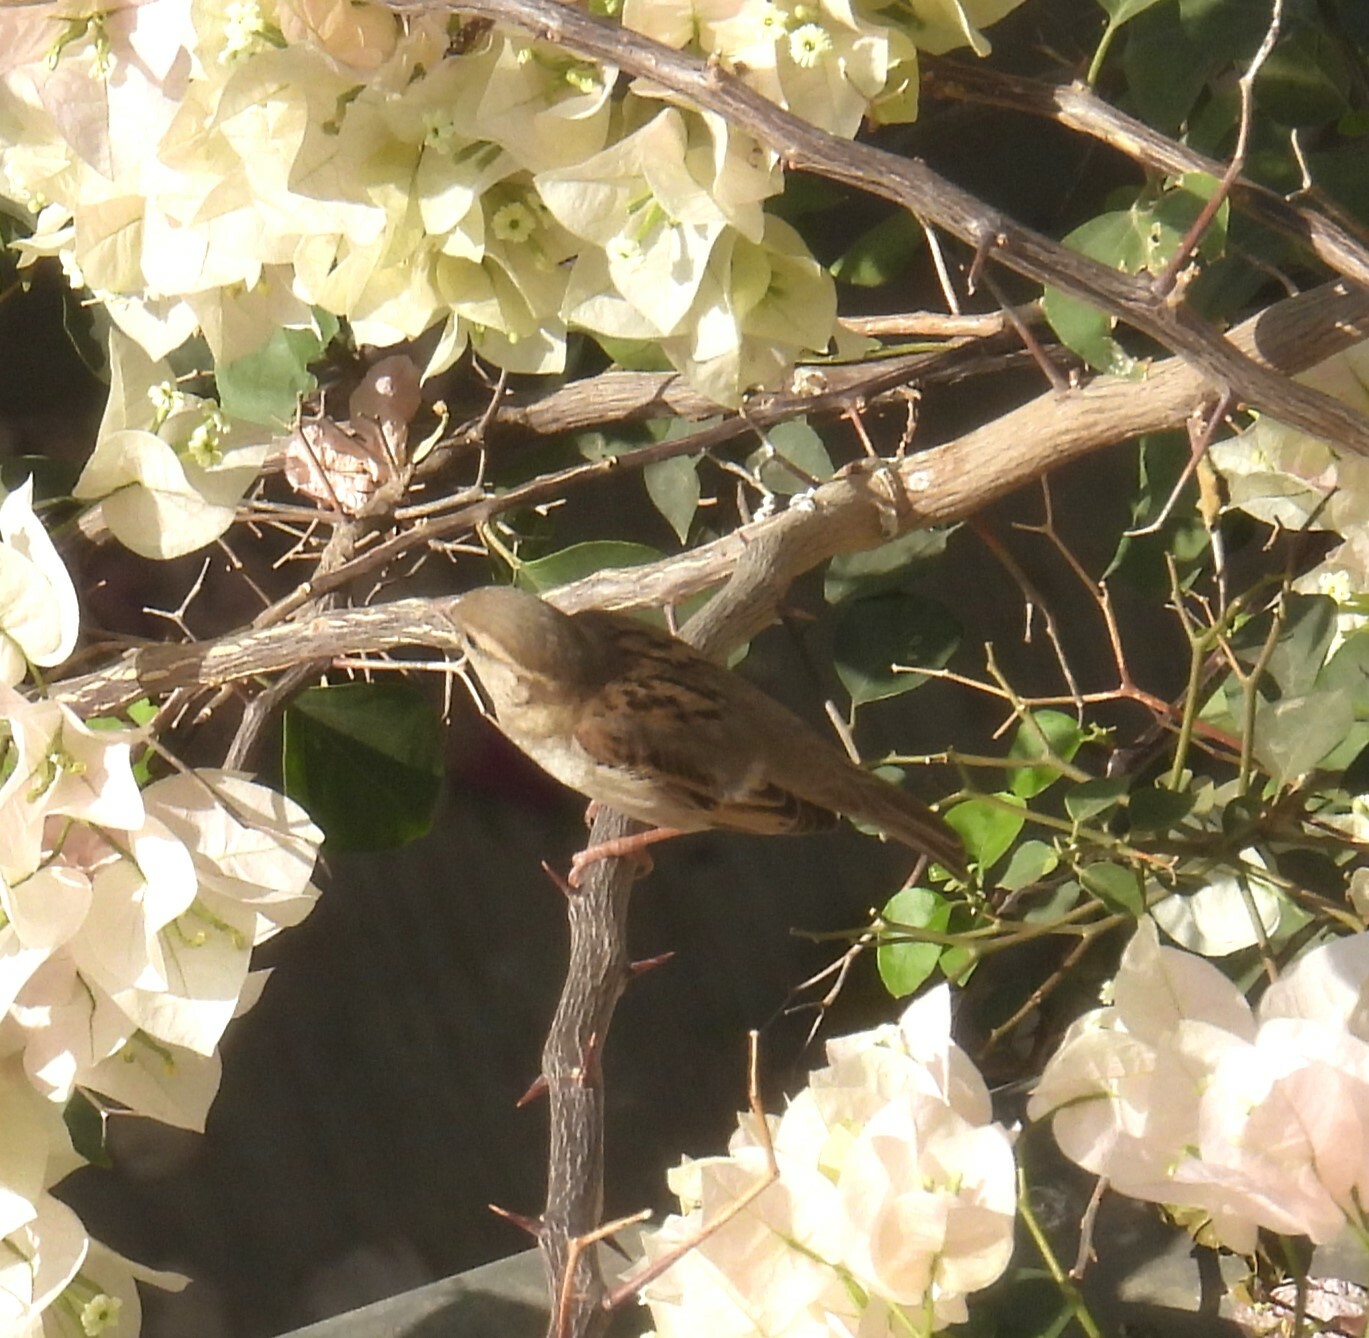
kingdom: Animalia
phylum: Chordata
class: Aves
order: Passeriformes
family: Passeridae
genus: Passer
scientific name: Passer domesticus
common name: House sparrow
